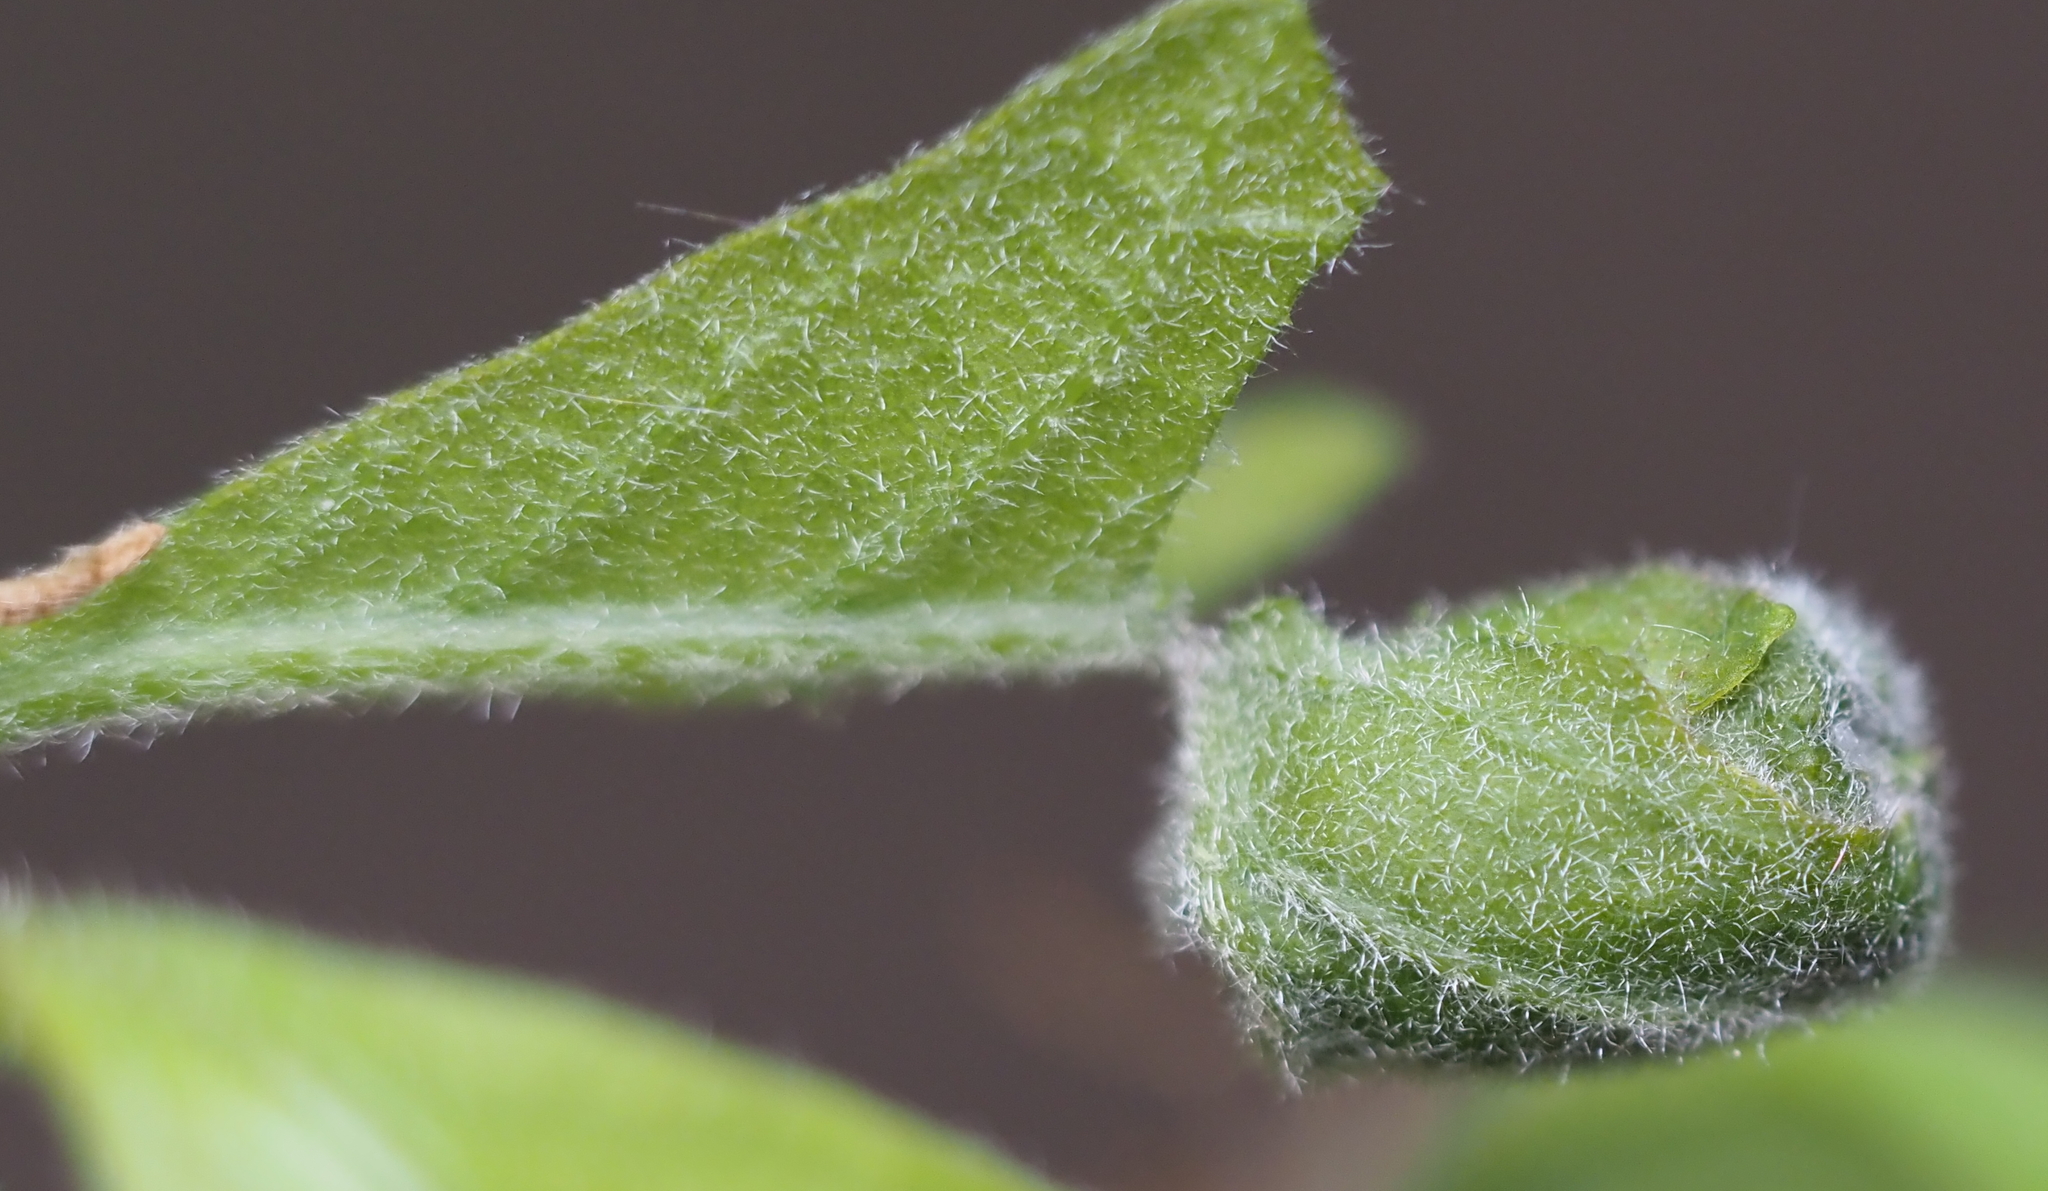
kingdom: Animalia
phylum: Arthropoda
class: Insecta
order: Coleoptera
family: Attelabidae
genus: Attelabus
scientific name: Attelabus bipustulatus
